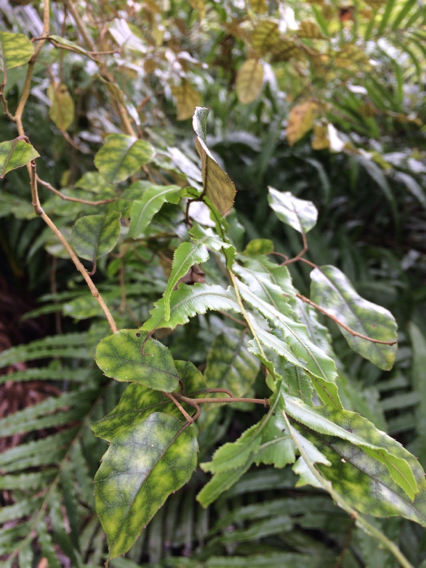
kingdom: Plantae
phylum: Tracheophyta
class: Magnoliopsida
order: Asterales
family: Rousseaceae
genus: Carpodetus
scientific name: Carpodetus serratus
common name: White mapau
